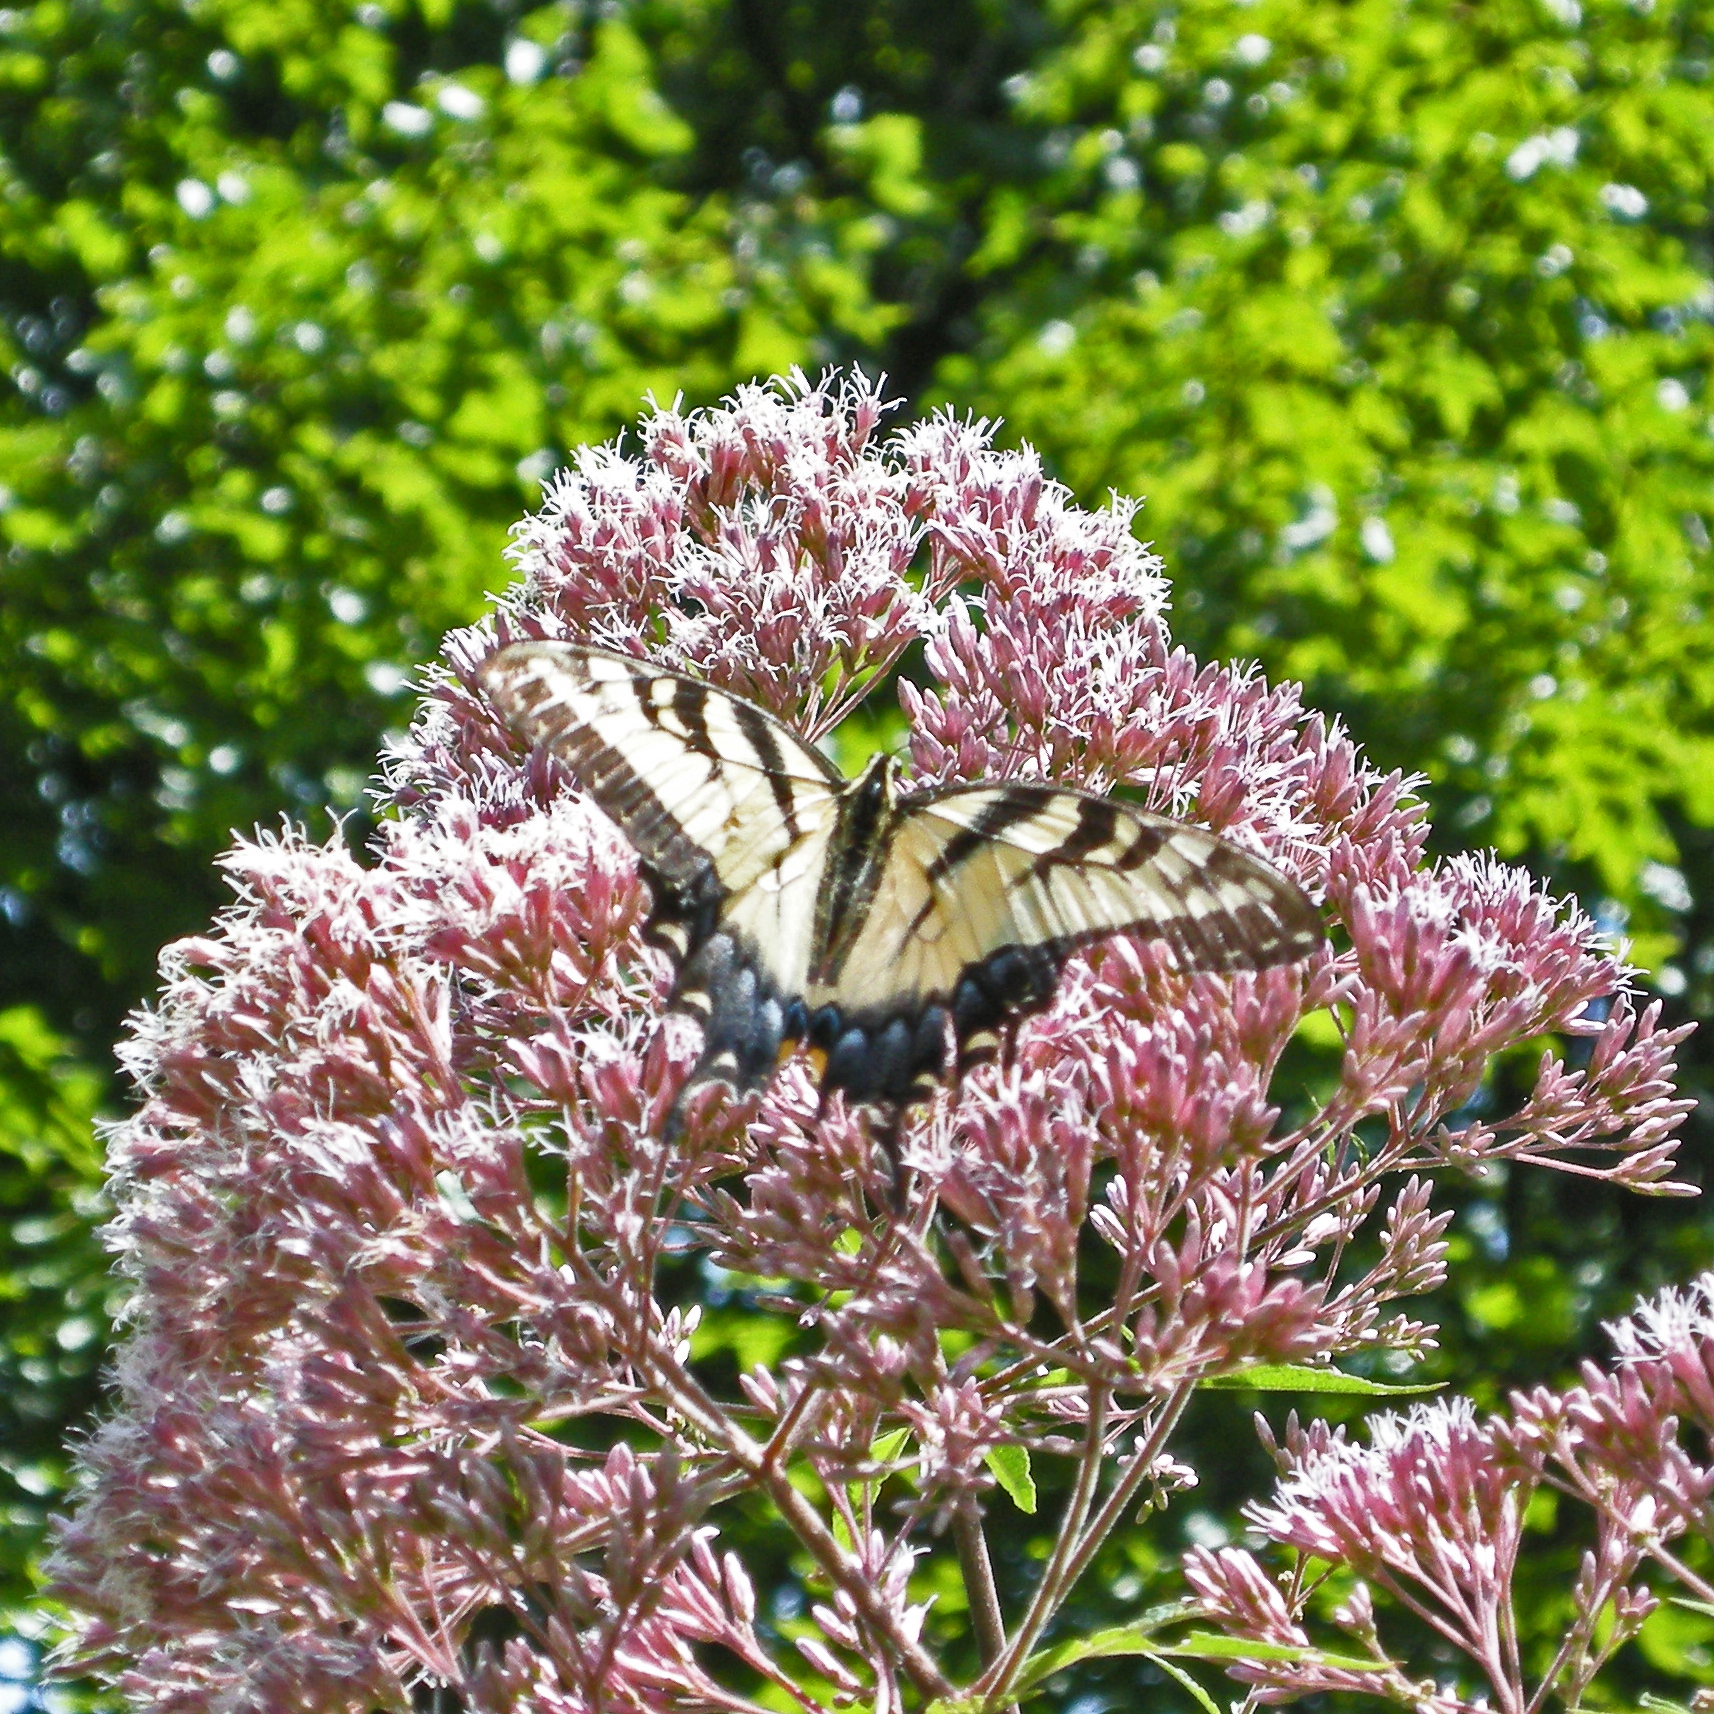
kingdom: Animalia
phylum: Arthropoda
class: Insecta
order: Lepidoptera
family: Papilionidae
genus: Papilio
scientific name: Papilio glaucus
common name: Tiger swallowtail
